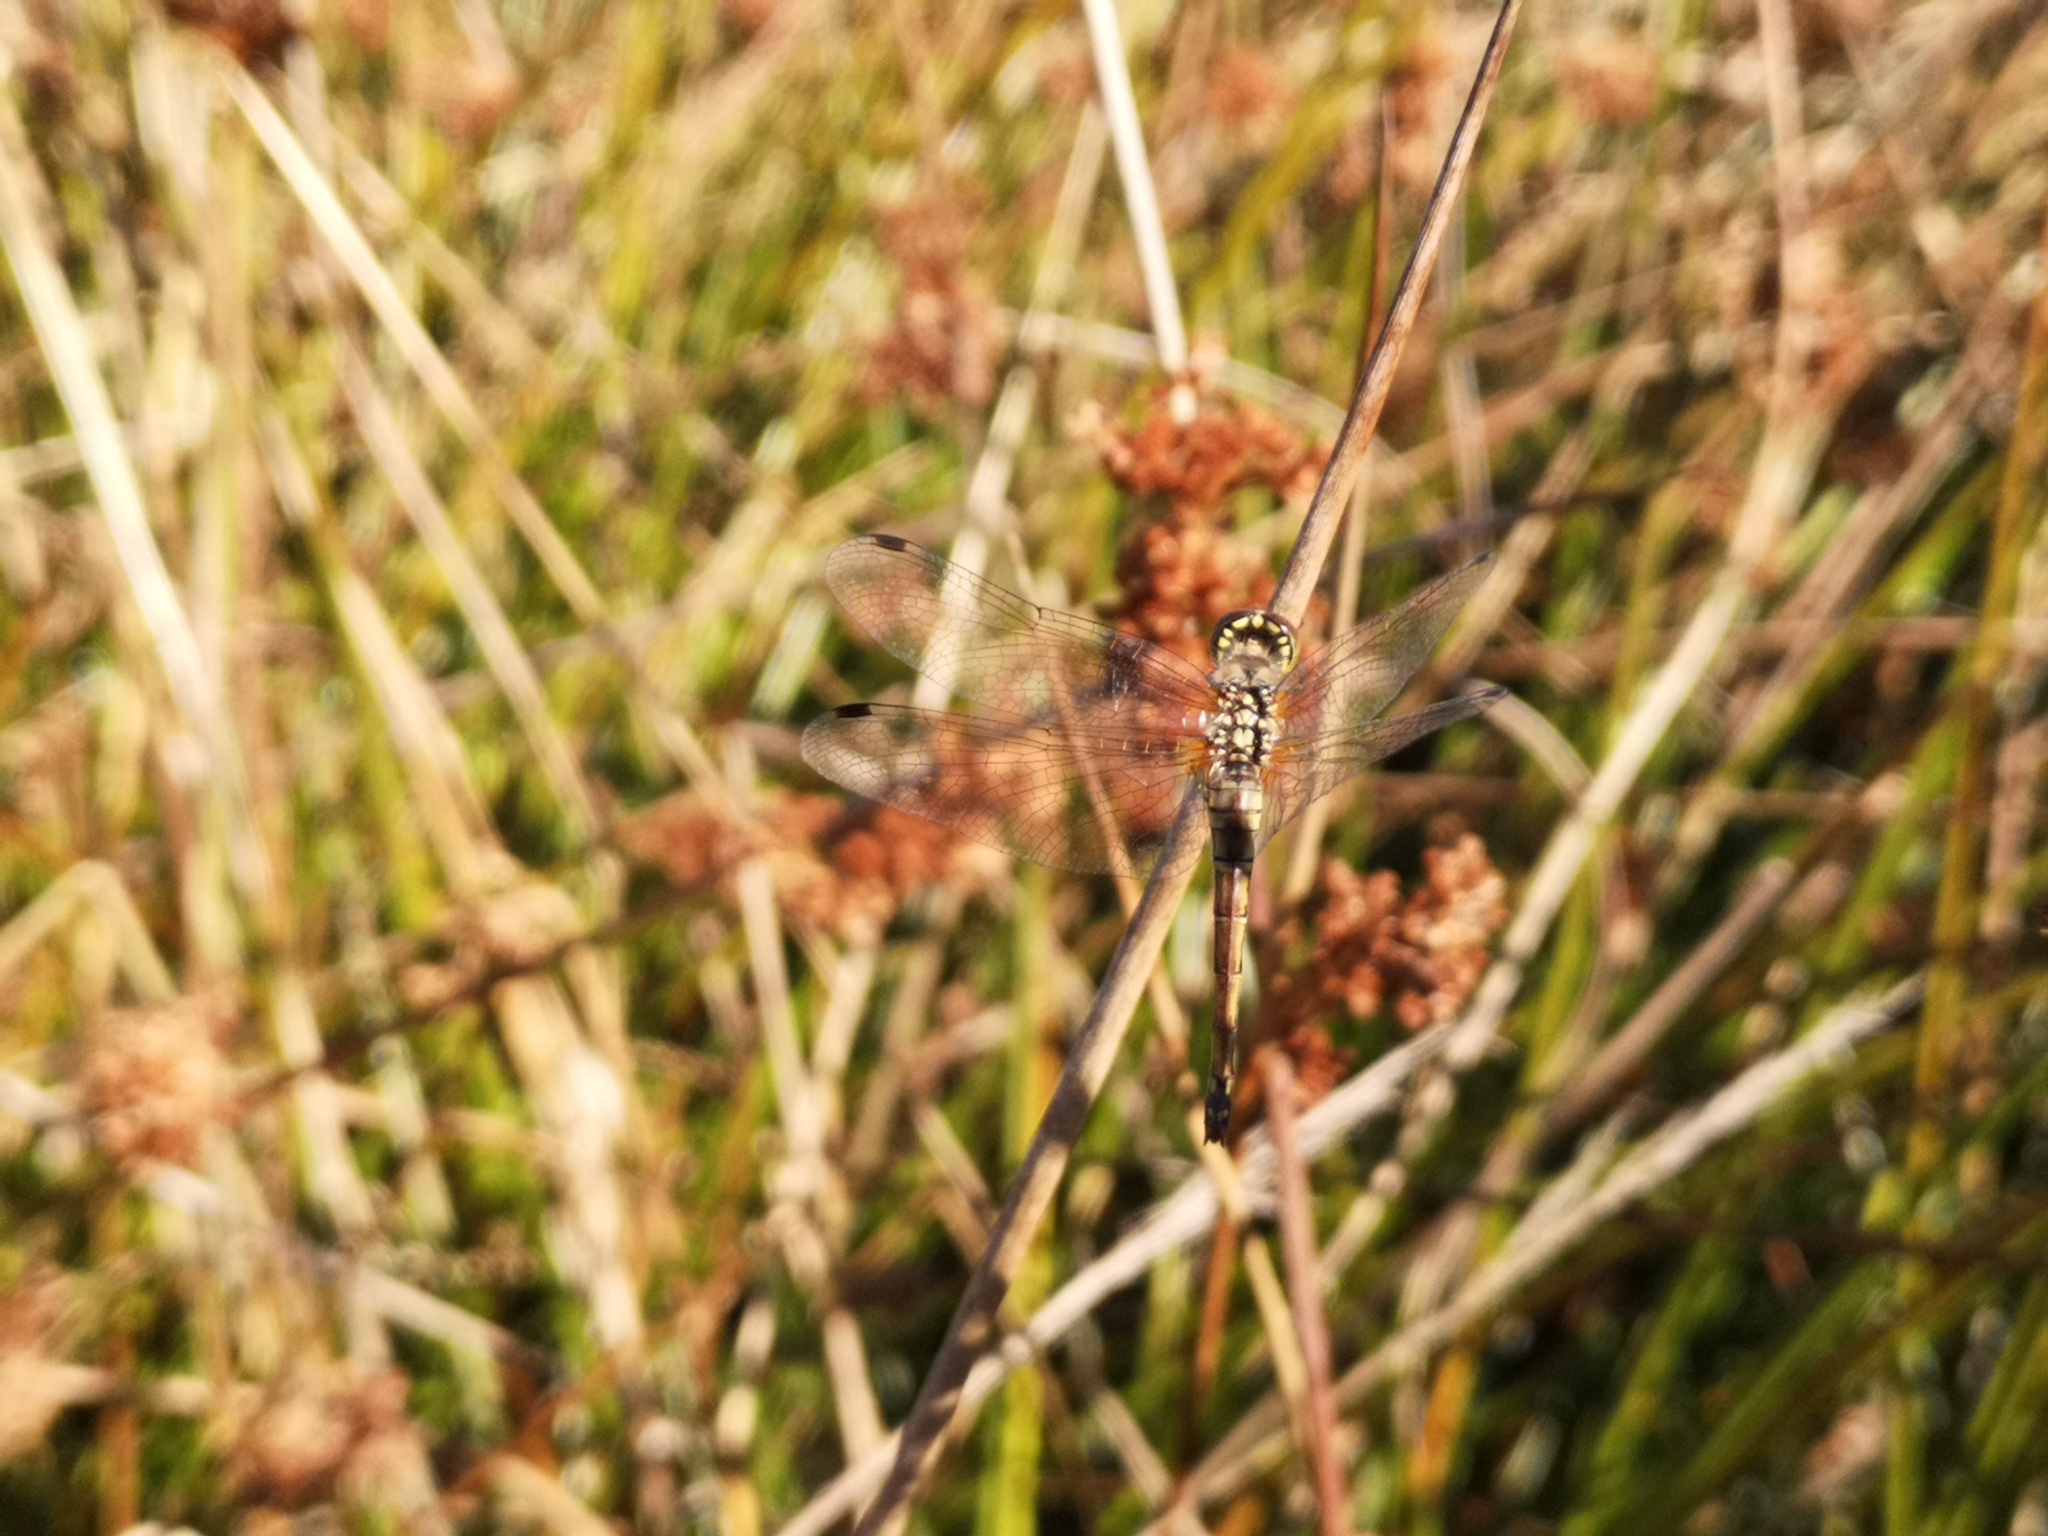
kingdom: Animalia
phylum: Arthropoda
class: Insecta
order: Odonata
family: Libellulidae
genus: Sympetrum
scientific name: Sympetrum danae
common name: Black darter
